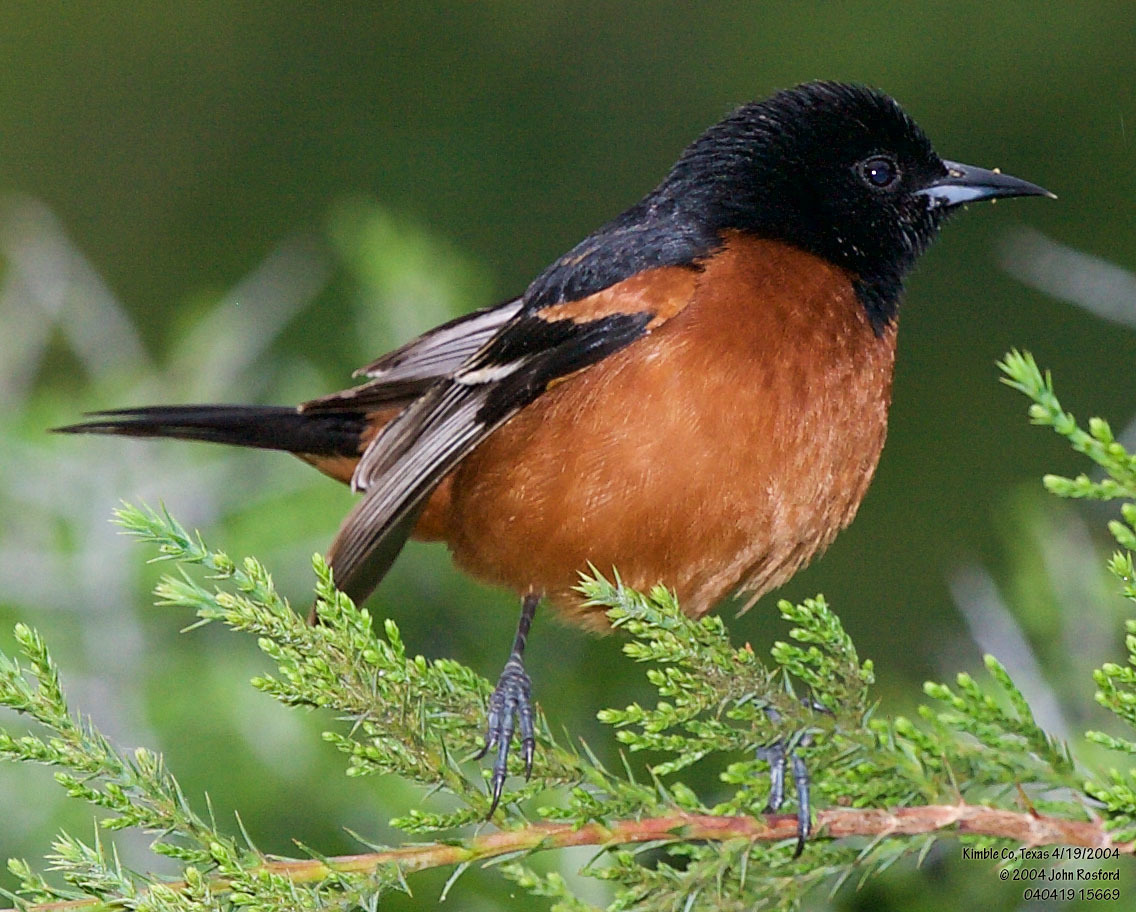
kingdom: Animalia
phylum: Chordata
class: Aves
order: Passeriformes
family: Icteridae
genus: Icterus
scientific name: Icterus spurius
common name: Orchard oriole
